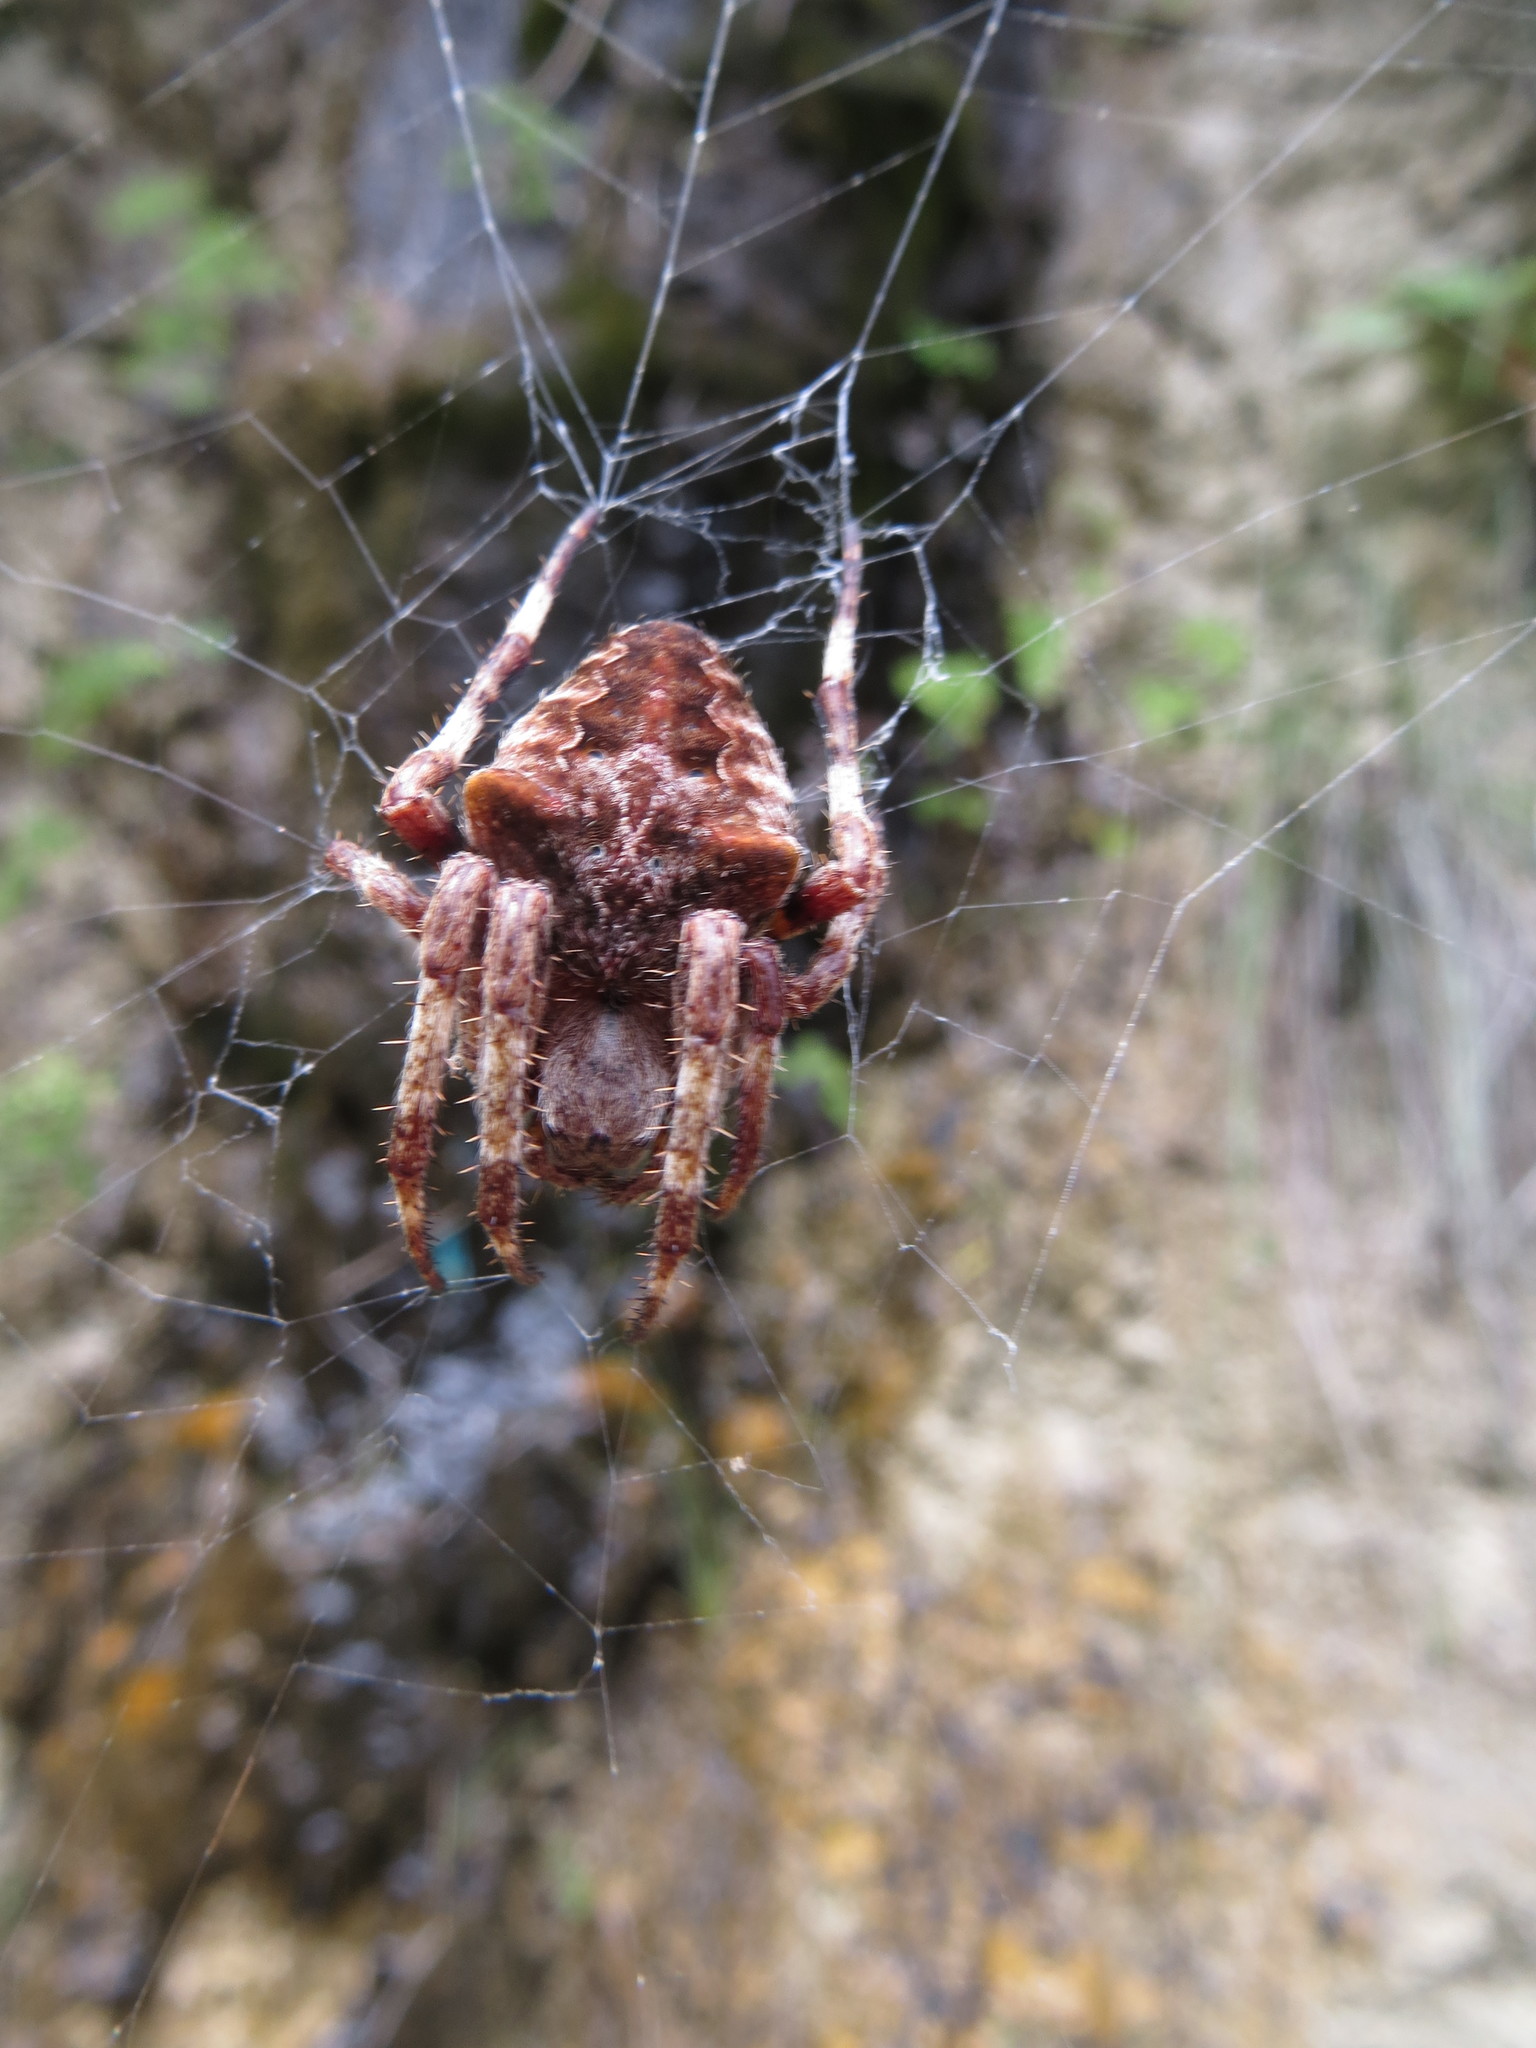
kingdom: Animalia
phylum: Arthropoda
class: Arachnida
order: Araneae
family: Araneidae
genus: Araneus
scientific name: Araneus angulatus
